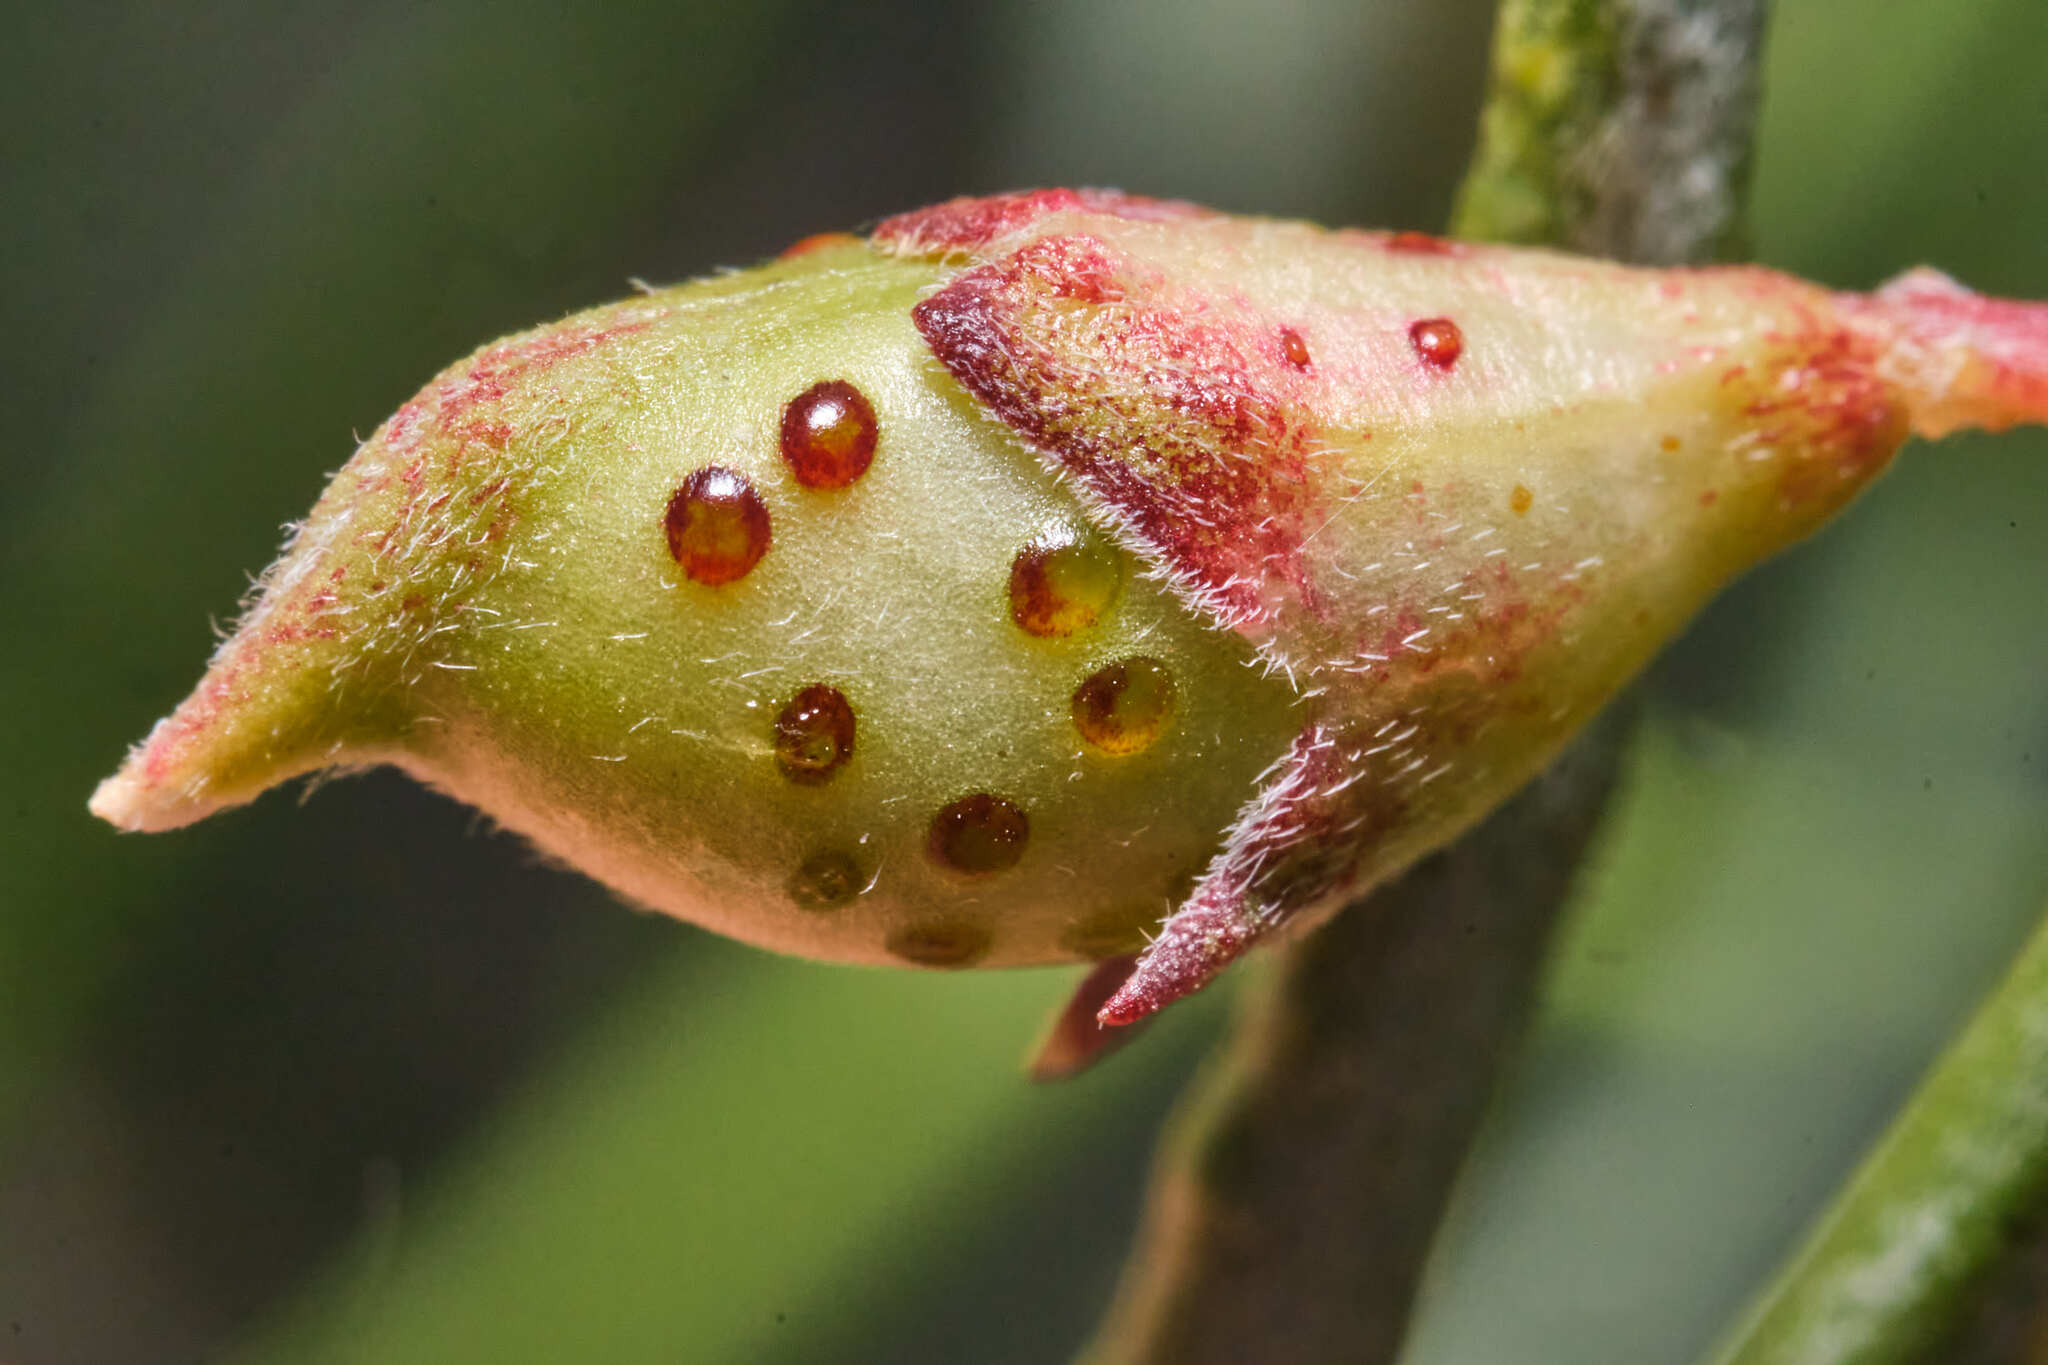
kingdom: Plantae
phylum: Tracheophyta
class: Magnoliopsida
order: Fabales
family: Fabaceae
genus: Psorothamnus
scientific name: Psorothamnus schottii
